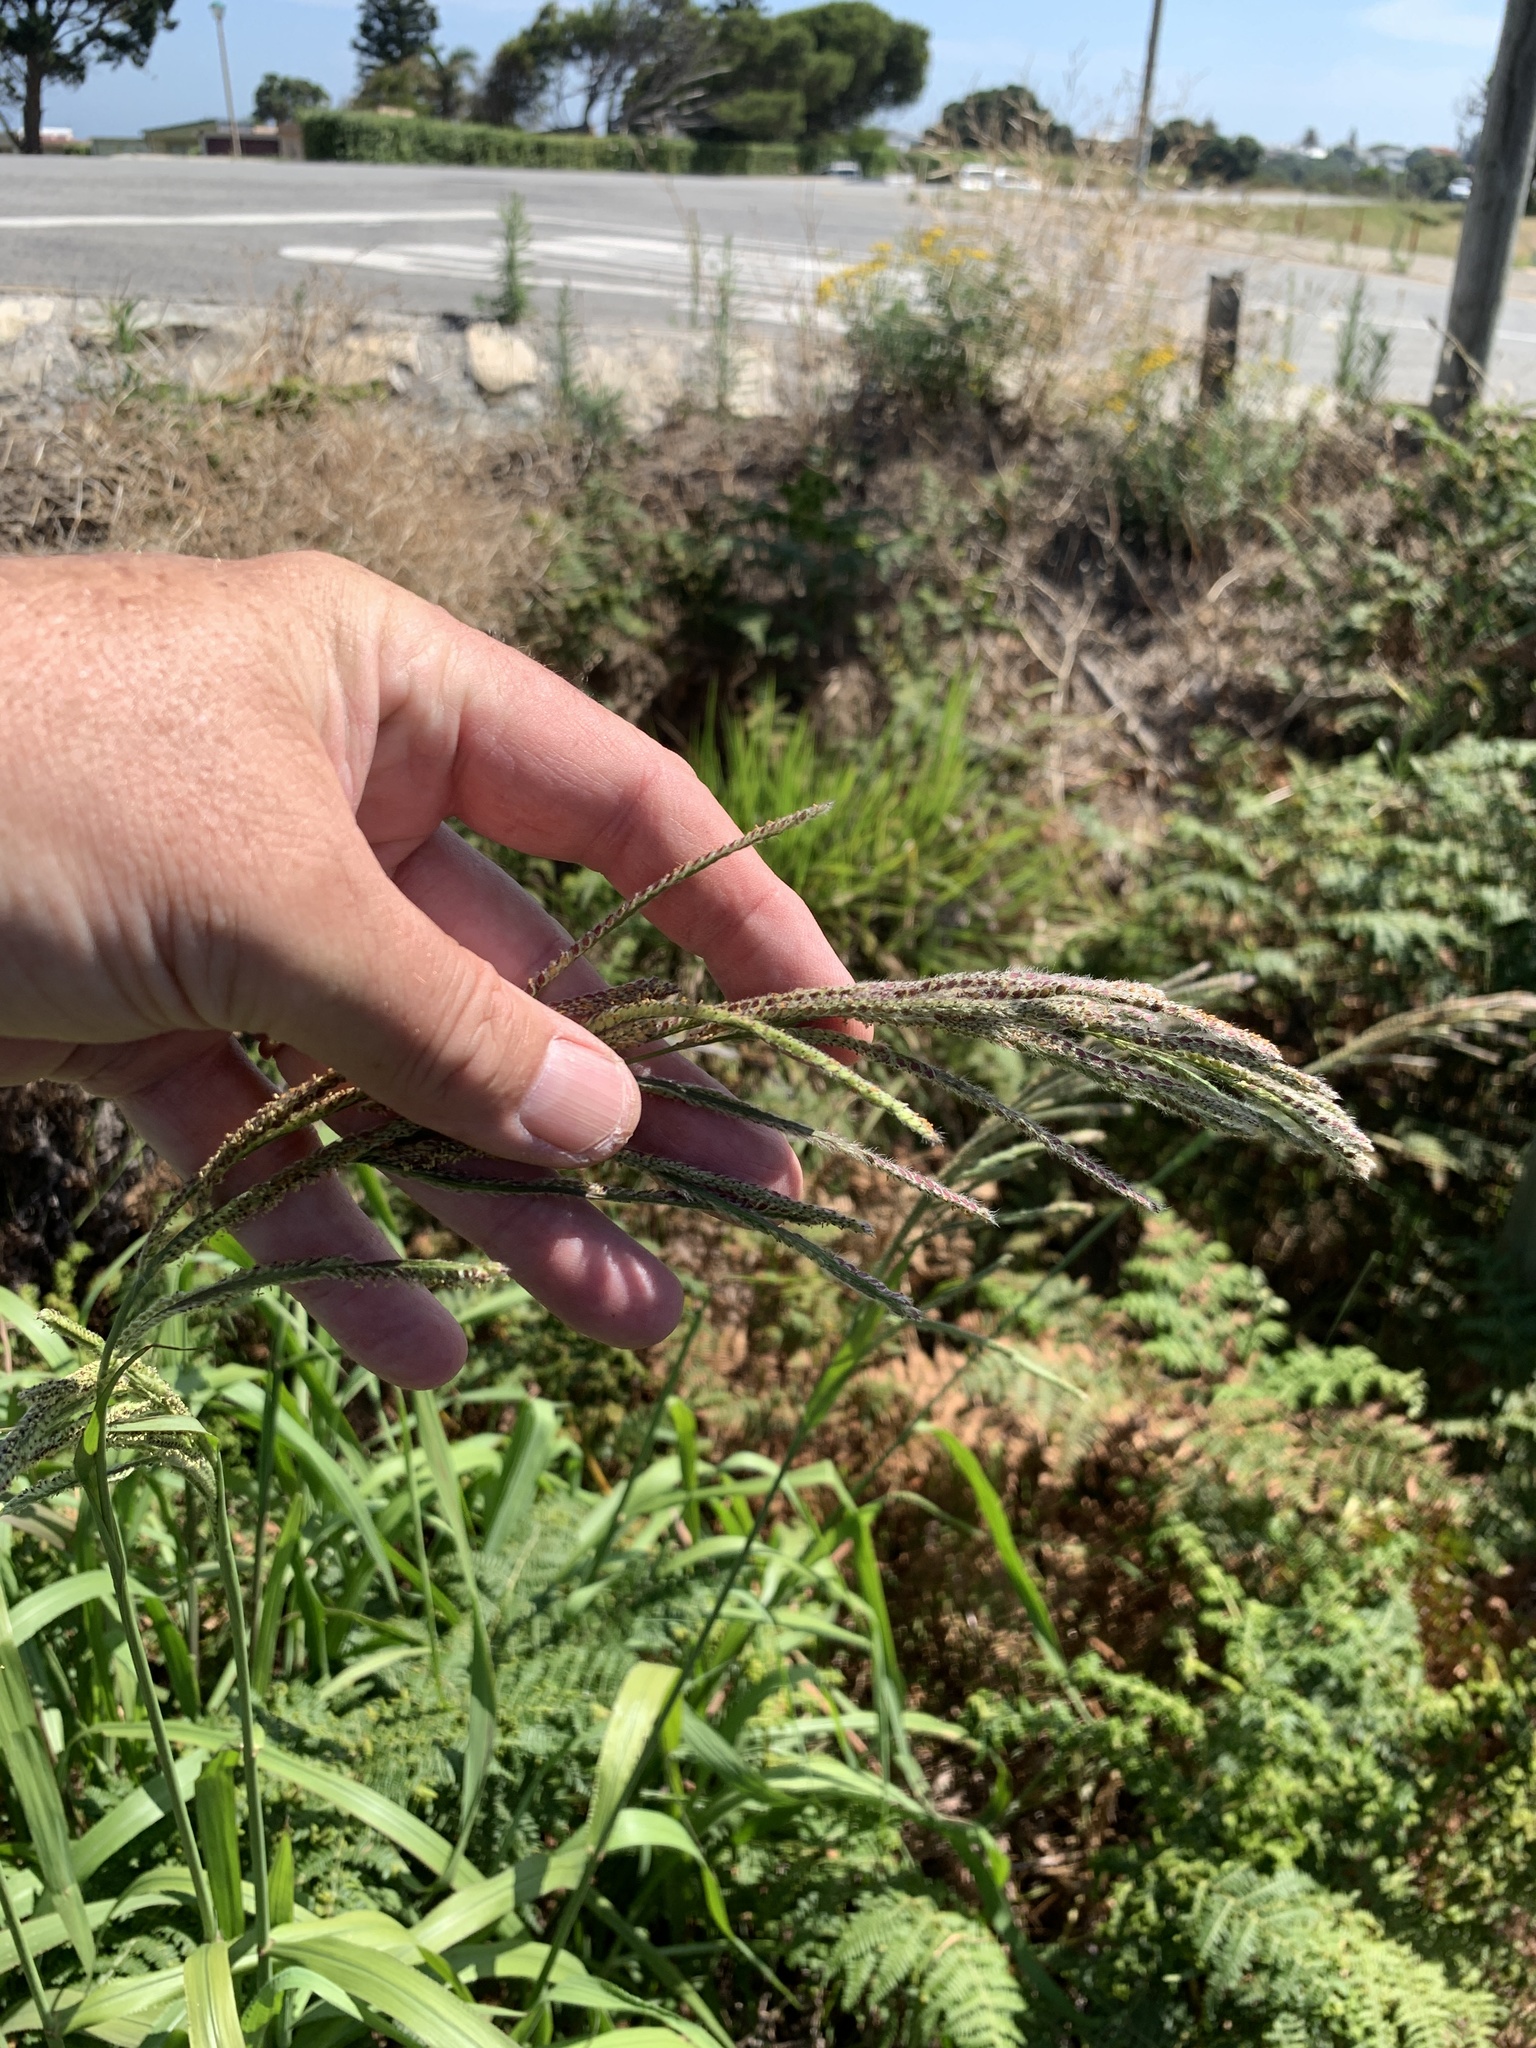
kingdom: Plantae
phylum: Tracheophyta
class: Liliopsida
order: Poales
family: Poaceae
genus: Paspalum
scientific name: Paspalum urvillei
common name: Vasey's grass
